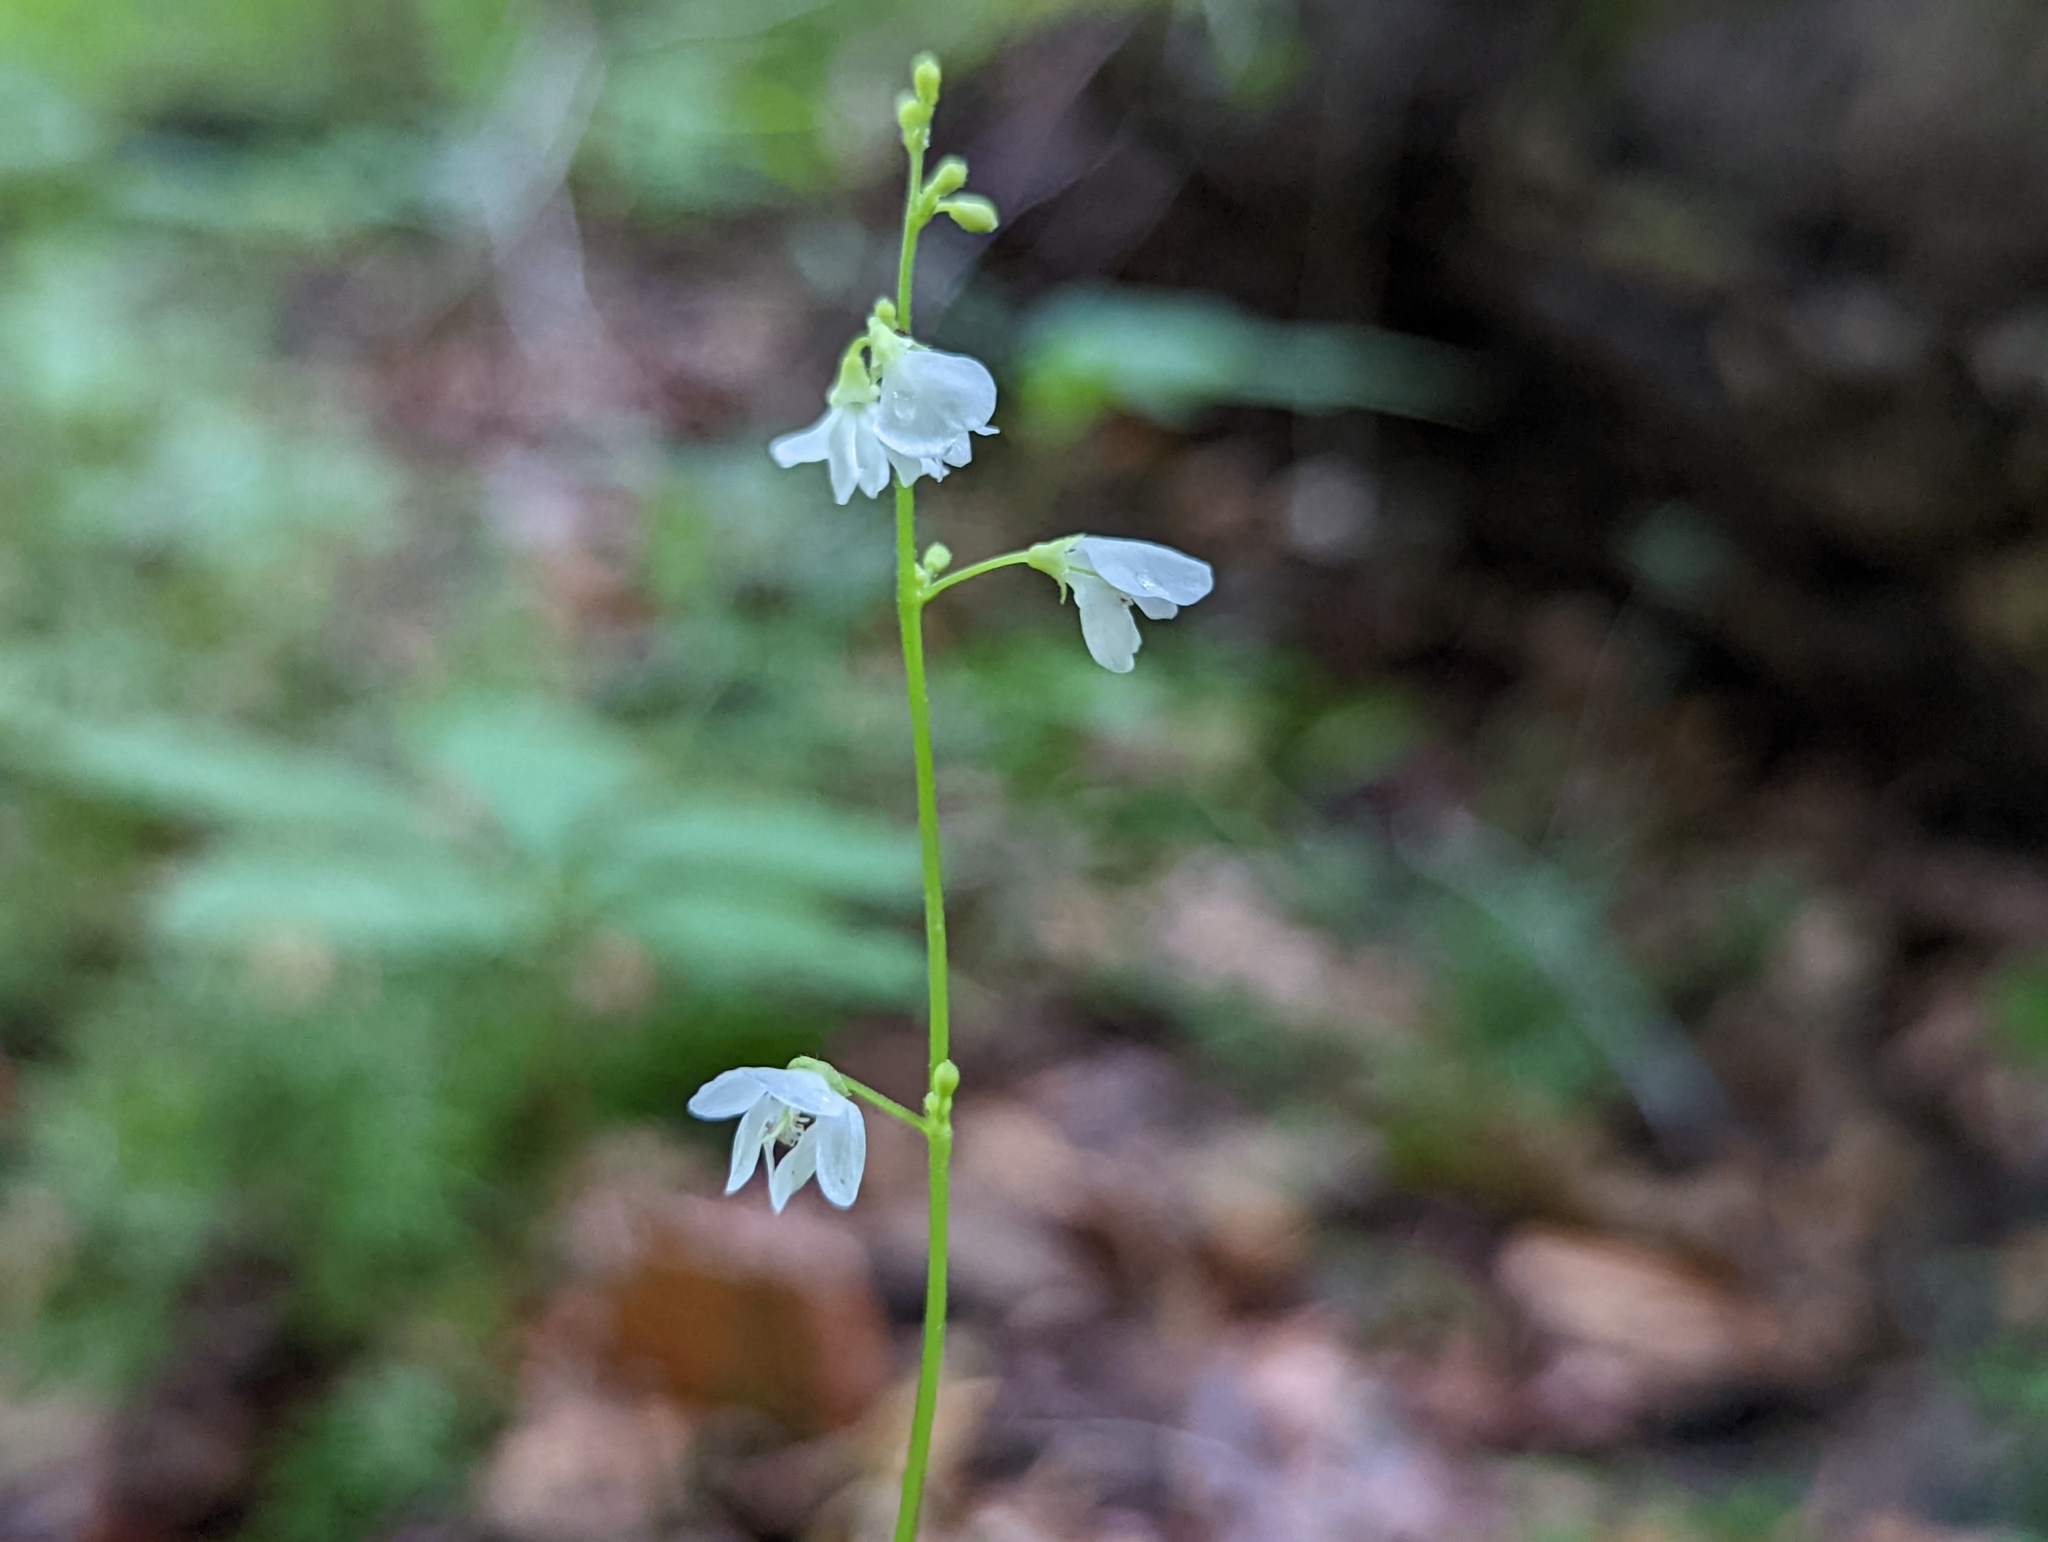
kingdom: Plantae
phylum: Tracheophyta
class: Magnoliopsida
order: Fabales
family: Fabaceae
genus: Hylodesmum
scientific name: Hylodesmum pauciflorum
